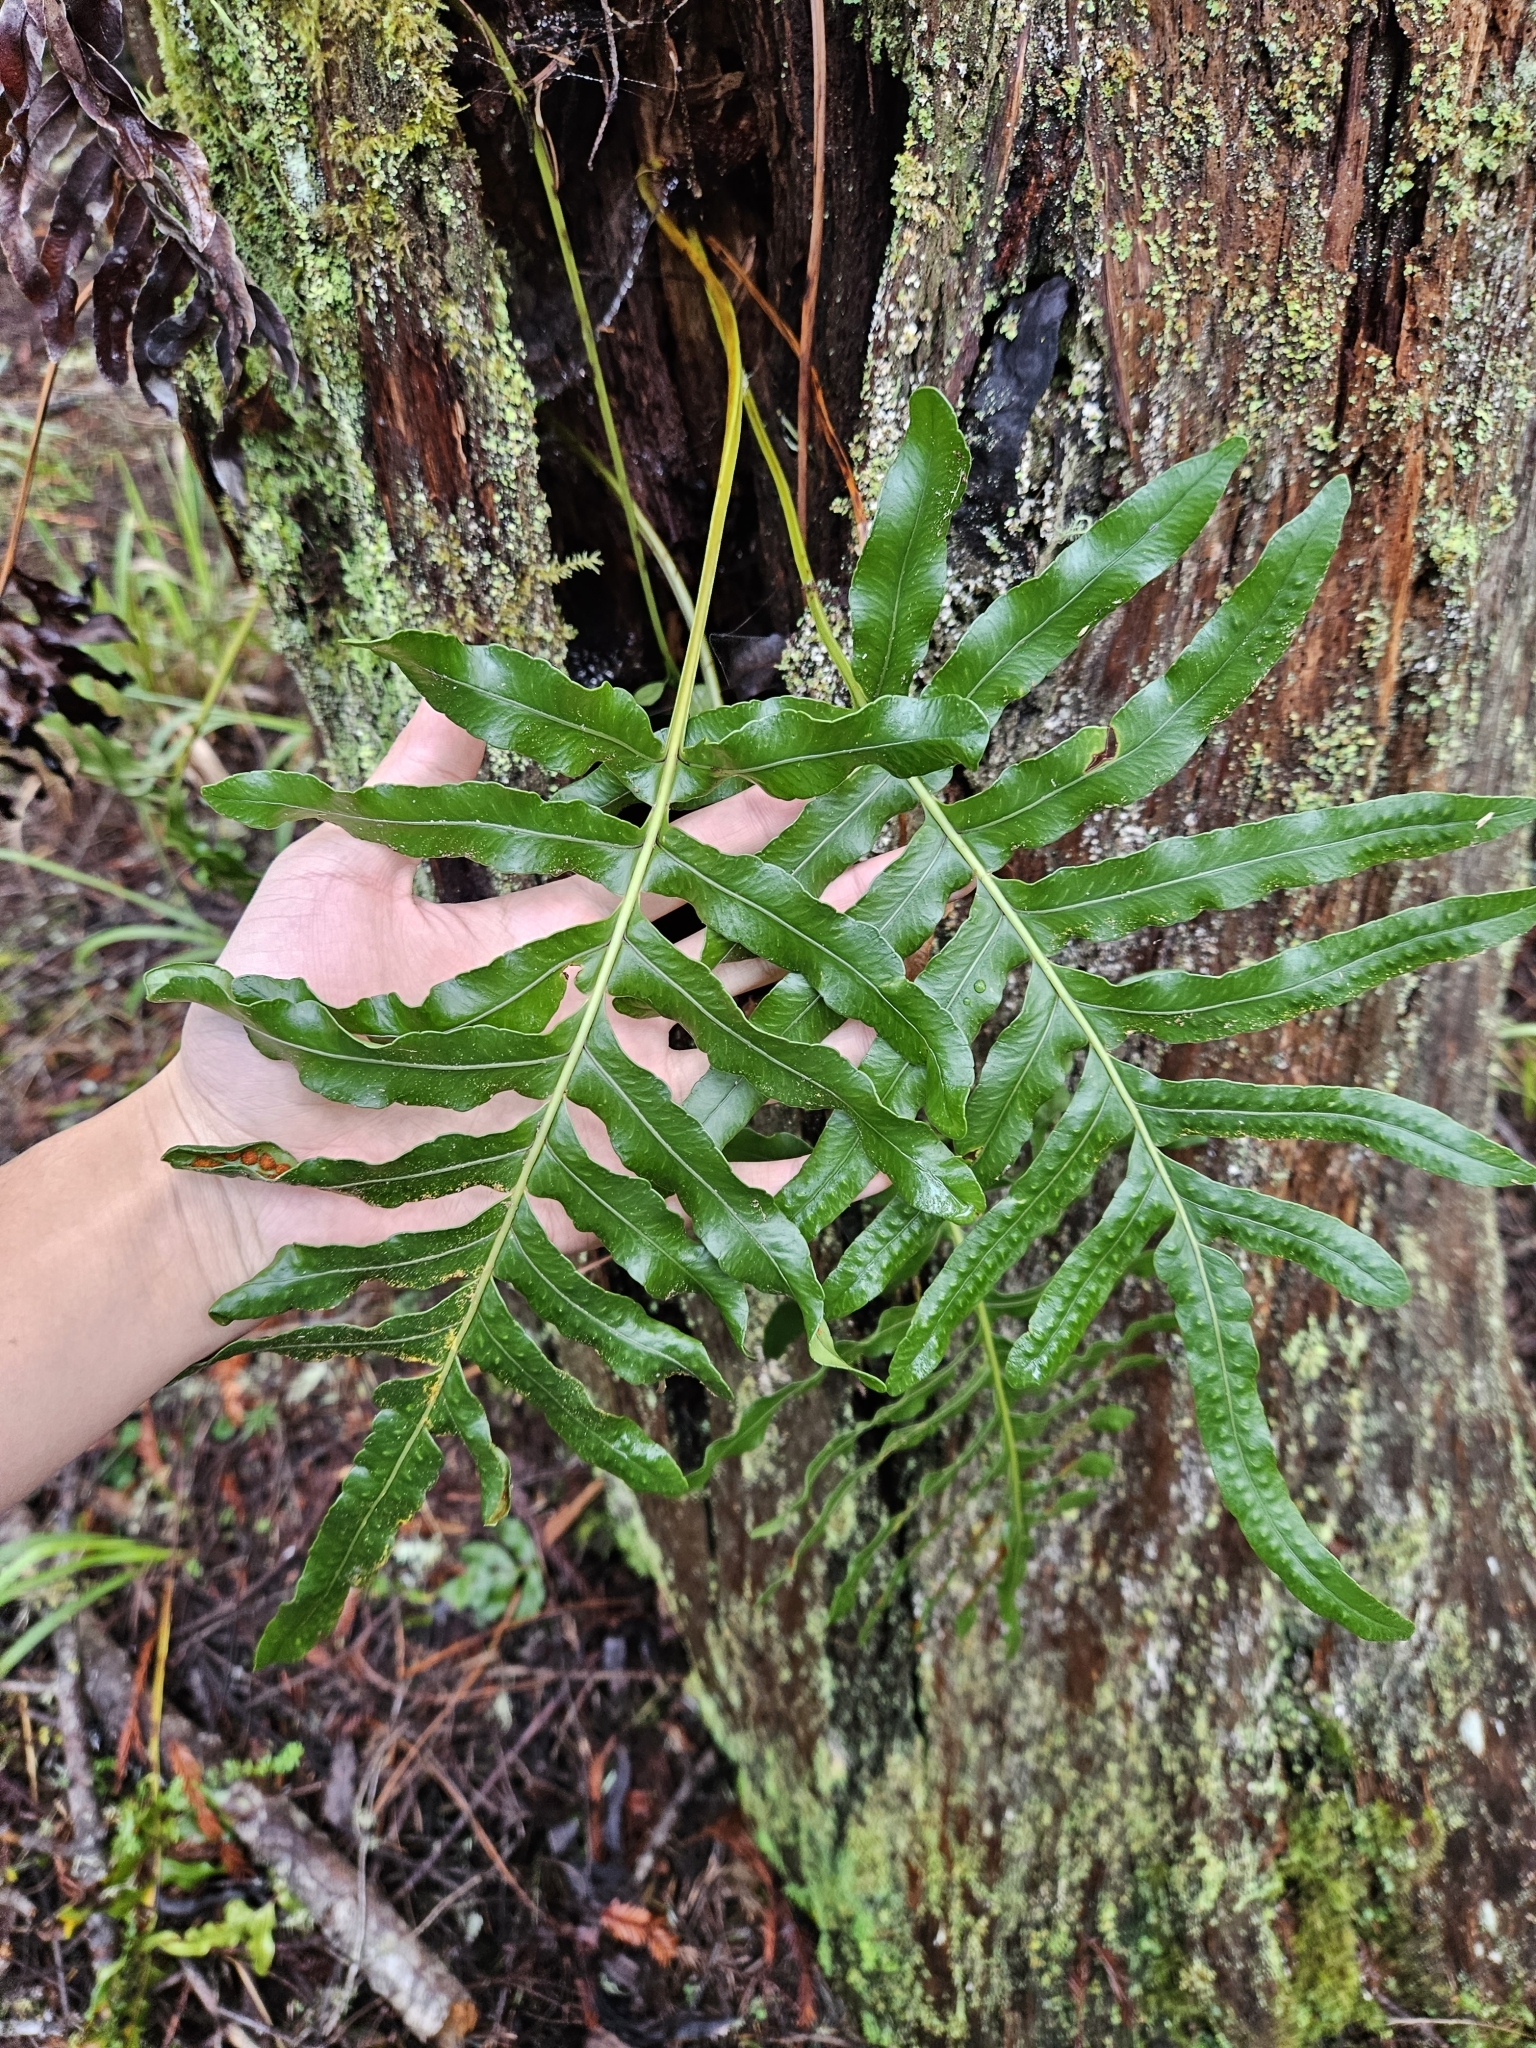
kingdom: Plantae
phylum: Tracheophyta
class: Polypodiopsida
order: Polypodiales
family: Polypodiaceae
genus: Polypodium
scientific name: Polypodium scouleri
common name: Scouler's polypody
